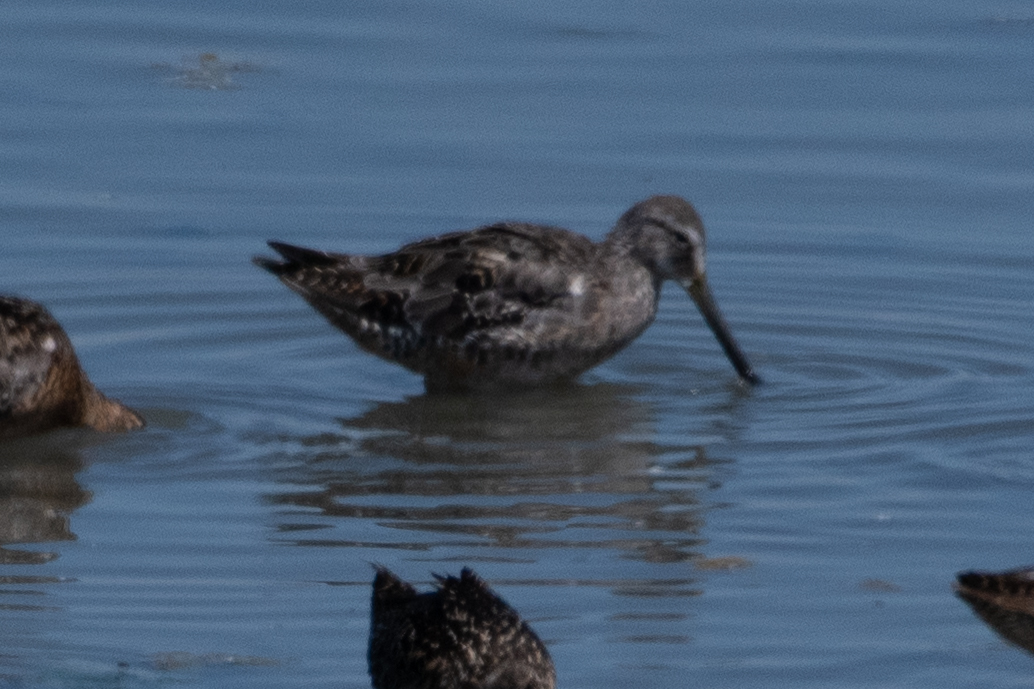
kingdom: Animalia
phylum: Chordata
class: Aves
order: Charadriiformes
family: Scolopacidae
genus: Limnodromus
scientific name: Limnodromus scolopaceus
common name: Long-billed dowitcher
